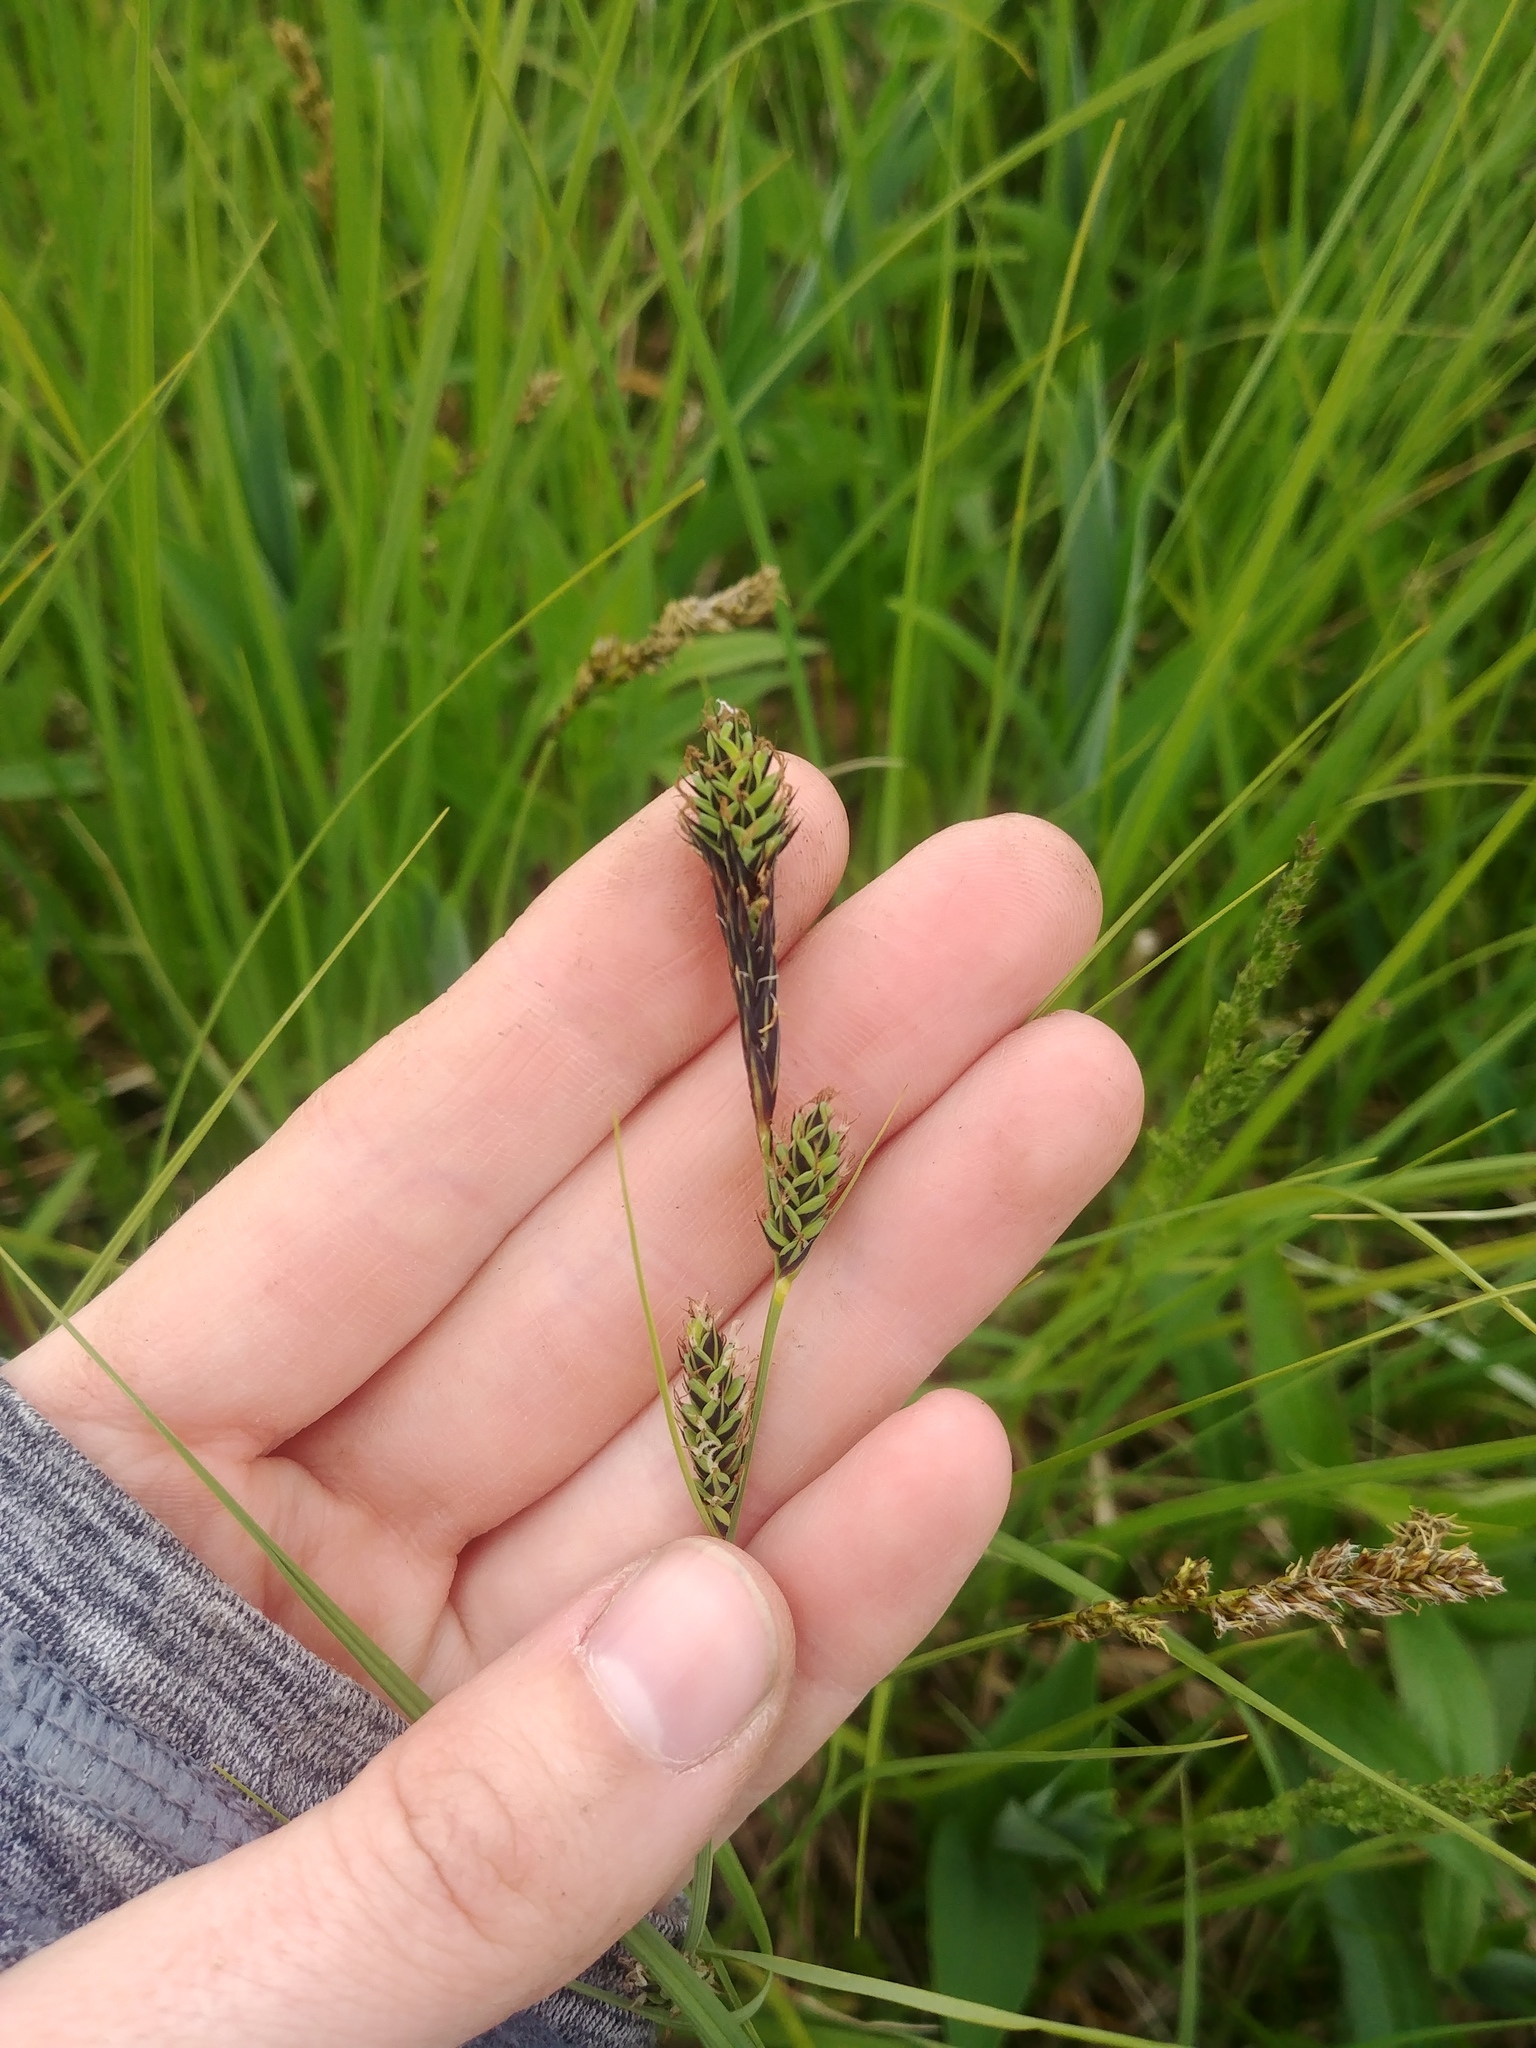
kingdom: Plantae
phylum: Tracheophyta
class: Liliopsida
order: Poales
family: Cyperaceae
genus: Carex
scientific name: Carex buxbaumii
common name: Club sedge
